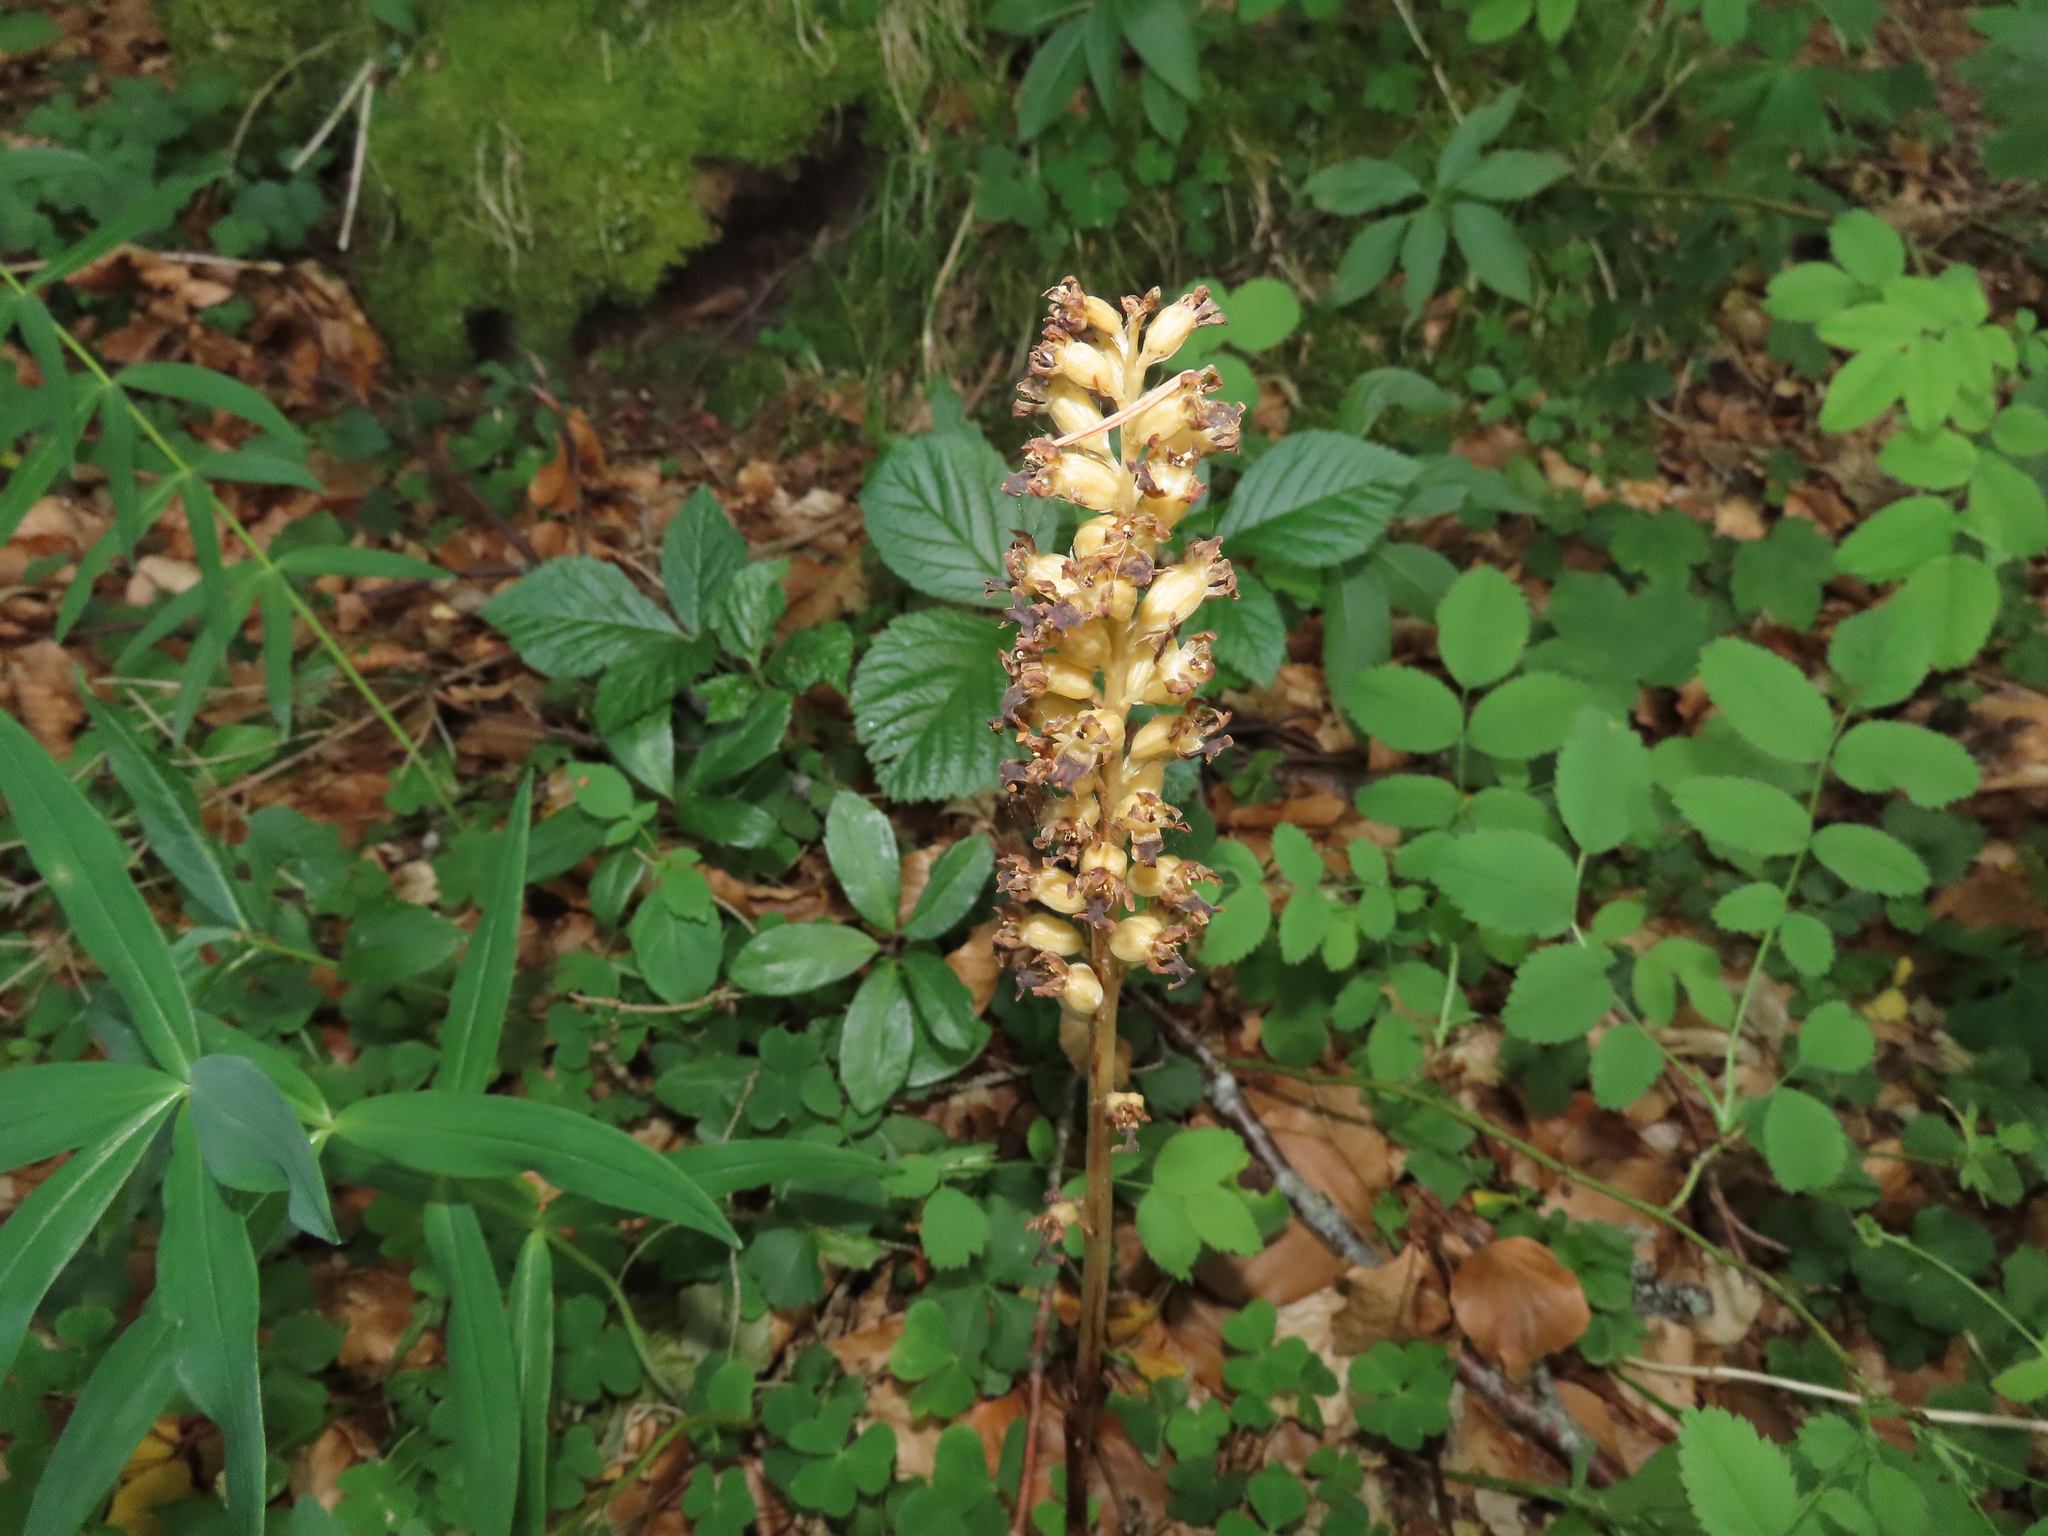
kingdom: Plantae
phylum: Tracheophyta
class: Liliopsida
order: Asparagales
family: Orchidaceae
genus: Neottia
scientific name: Neottia nidus-avis
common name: Bird's-nest orchid
